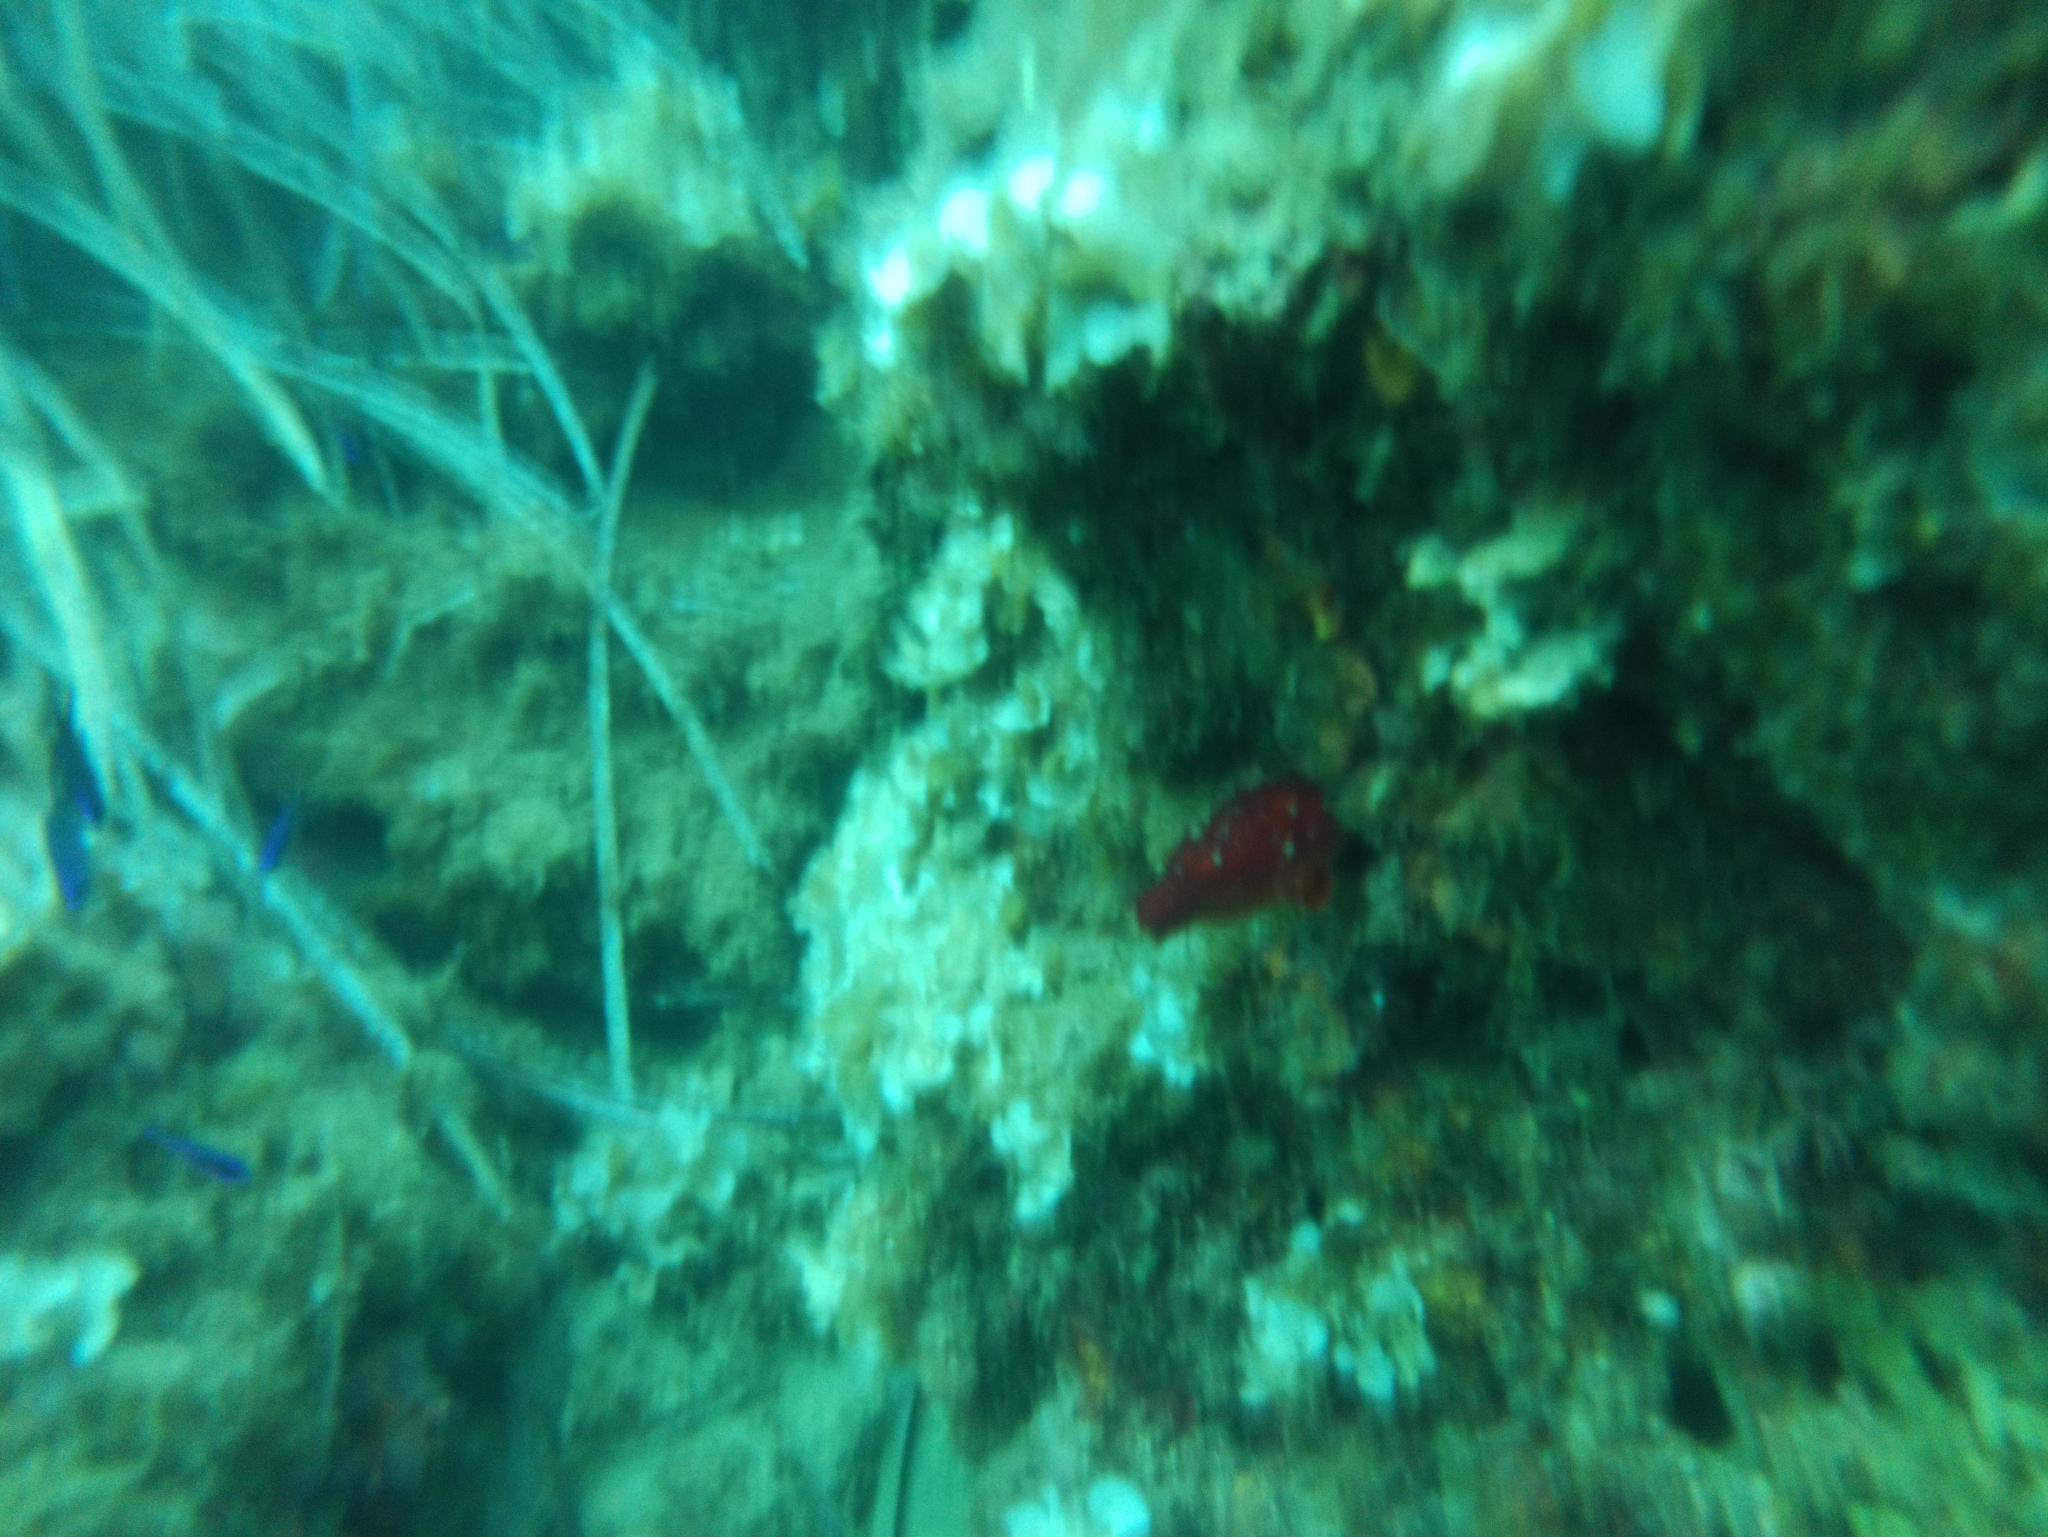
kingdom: Animalia
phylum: Chordata
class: Ascidiacea
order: Stolidobranchia
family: Pyuridae
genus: Halocynthia
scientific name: Halocynthia papillosa
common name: Red sea-squirt
